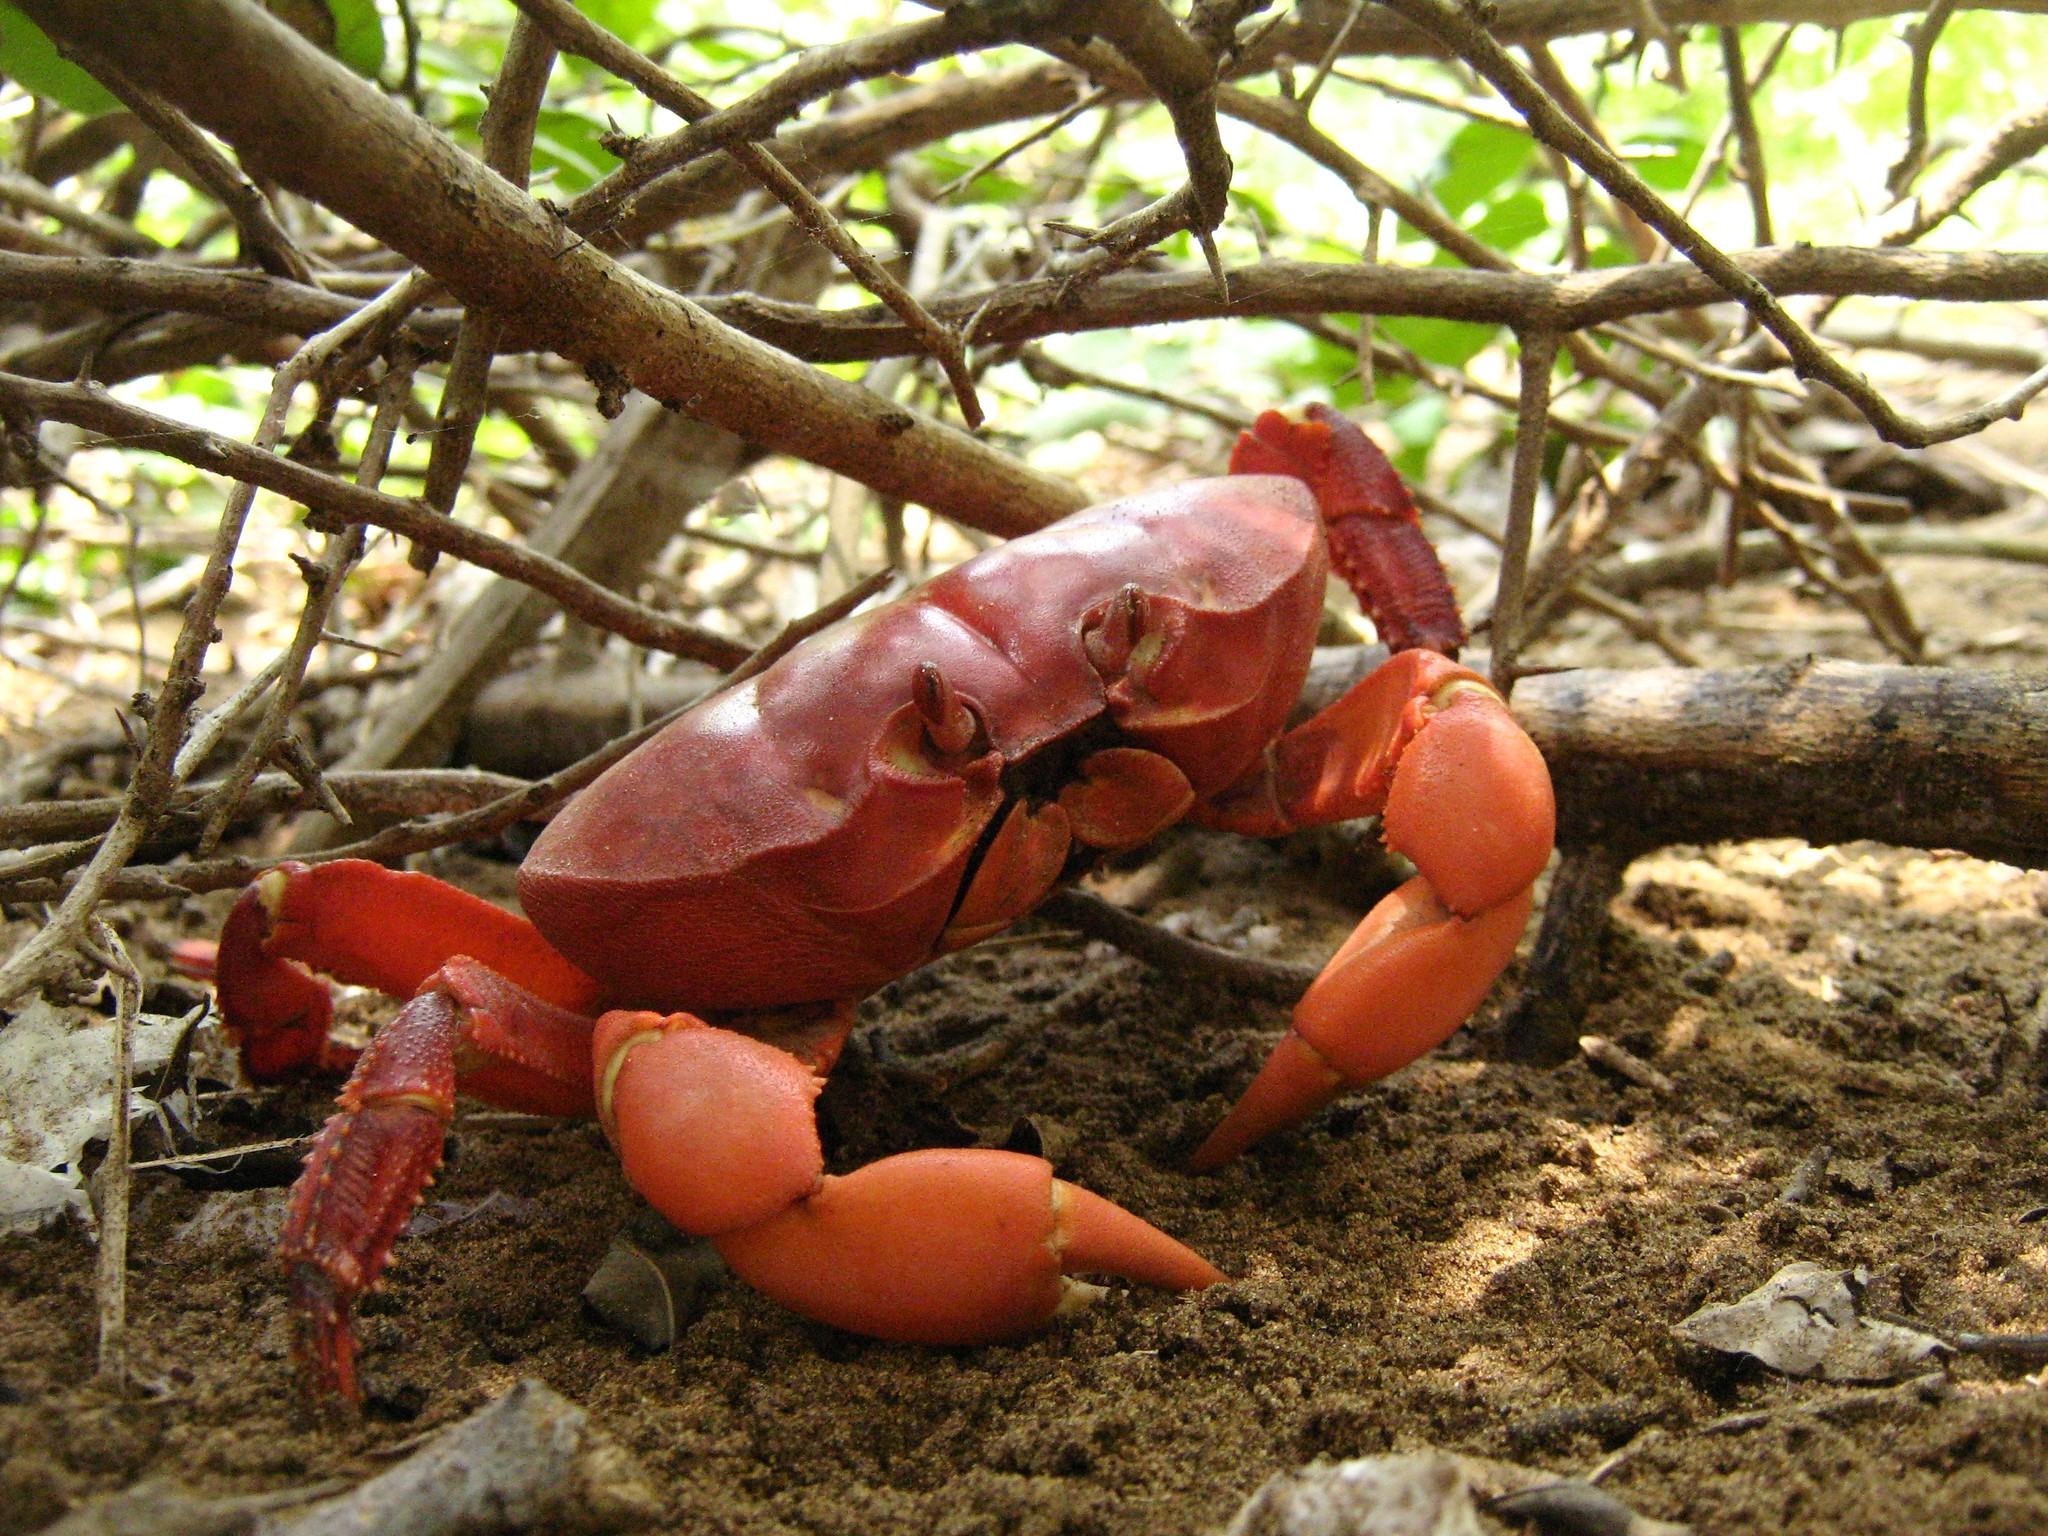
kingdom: Animalia
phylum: Arthropoda
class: Malacostraca
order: Decapoda
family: Gecarcinidae
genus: Johngarthia
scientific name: Johngarthia planata
